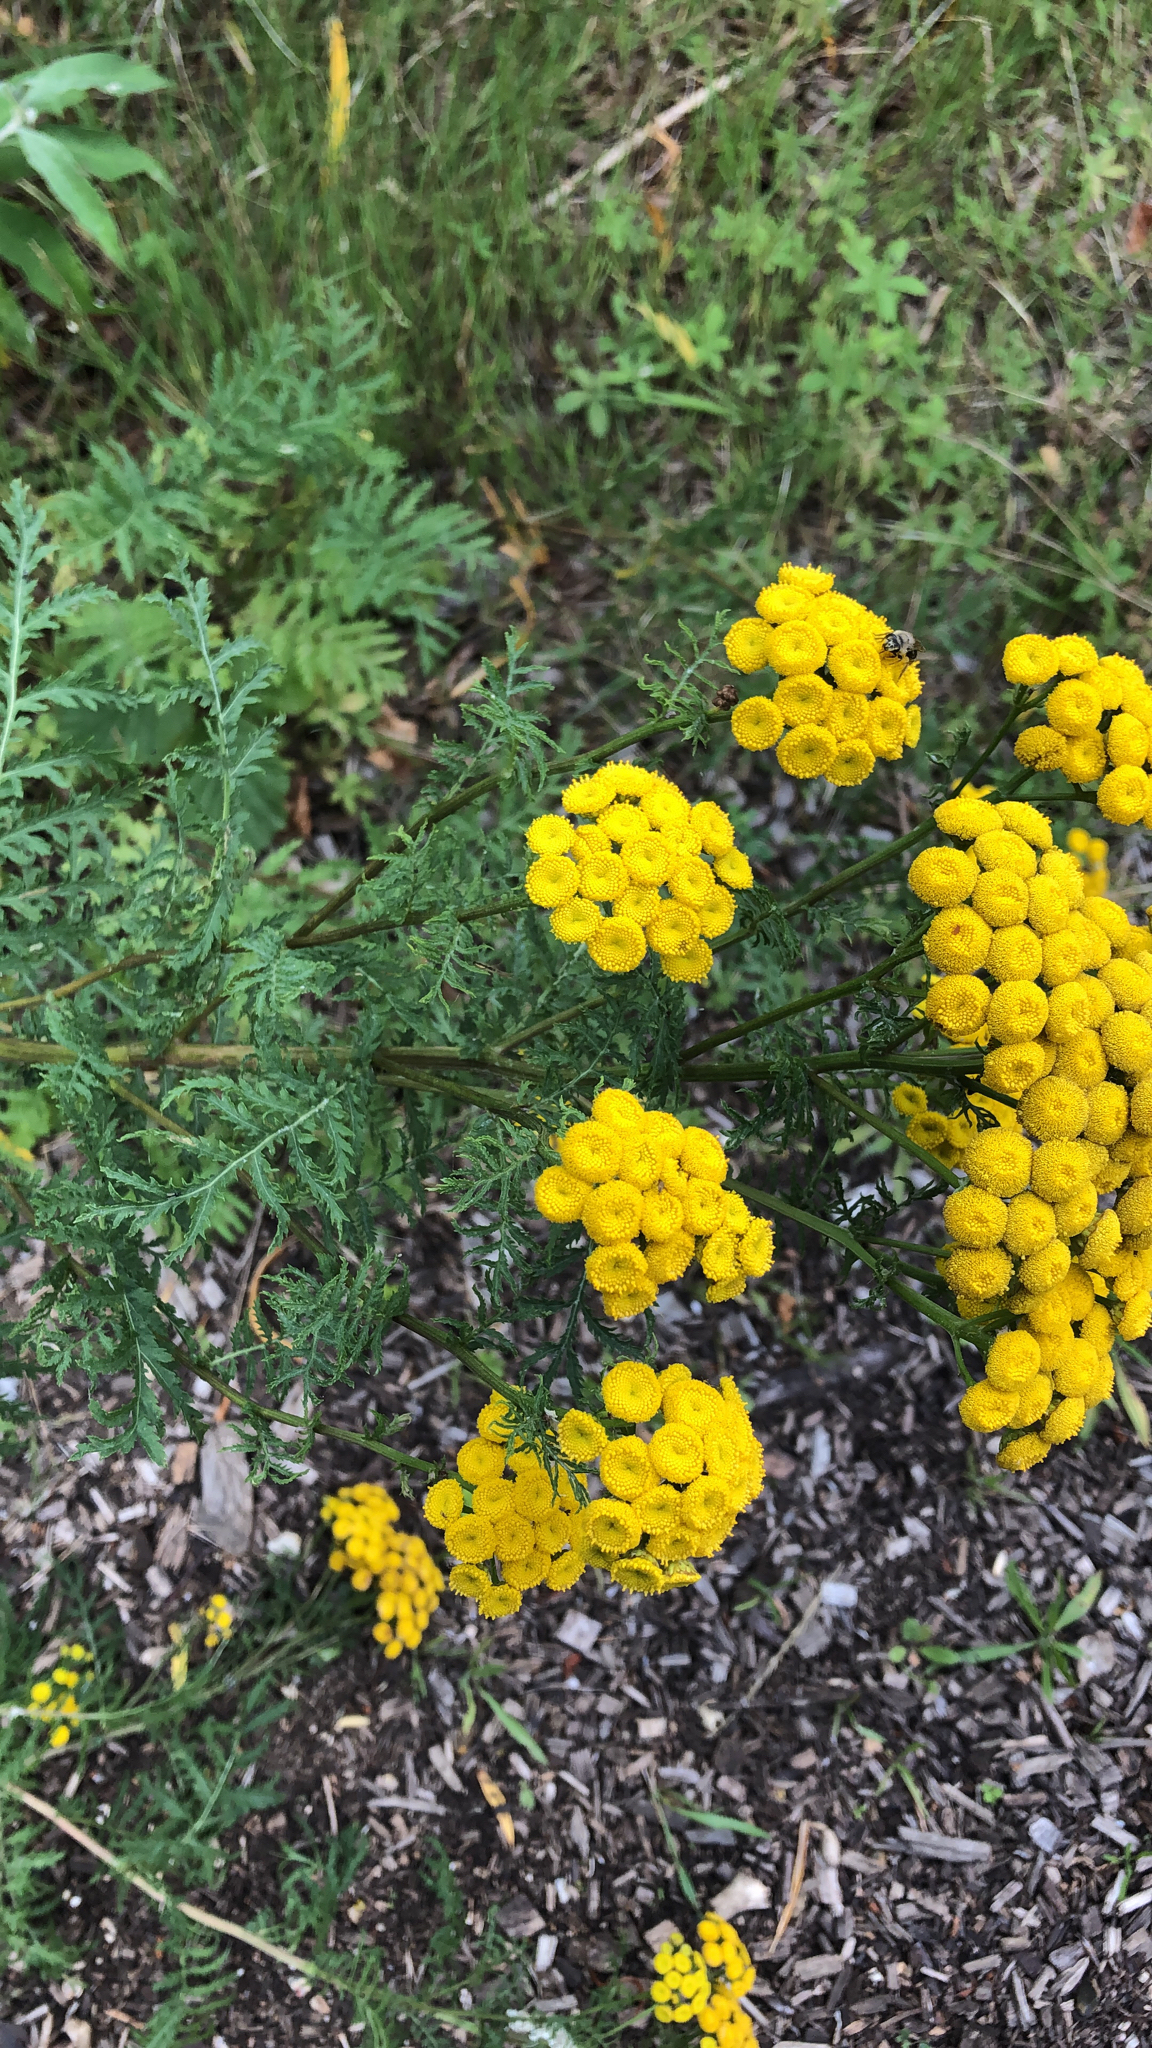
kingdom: Plantae
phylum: Tracheophyta
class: Magnoliopsida
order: Asterales
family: Asteraceae
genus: Tanacetum
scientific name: Tanacetum vulgare
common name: Common tansy
